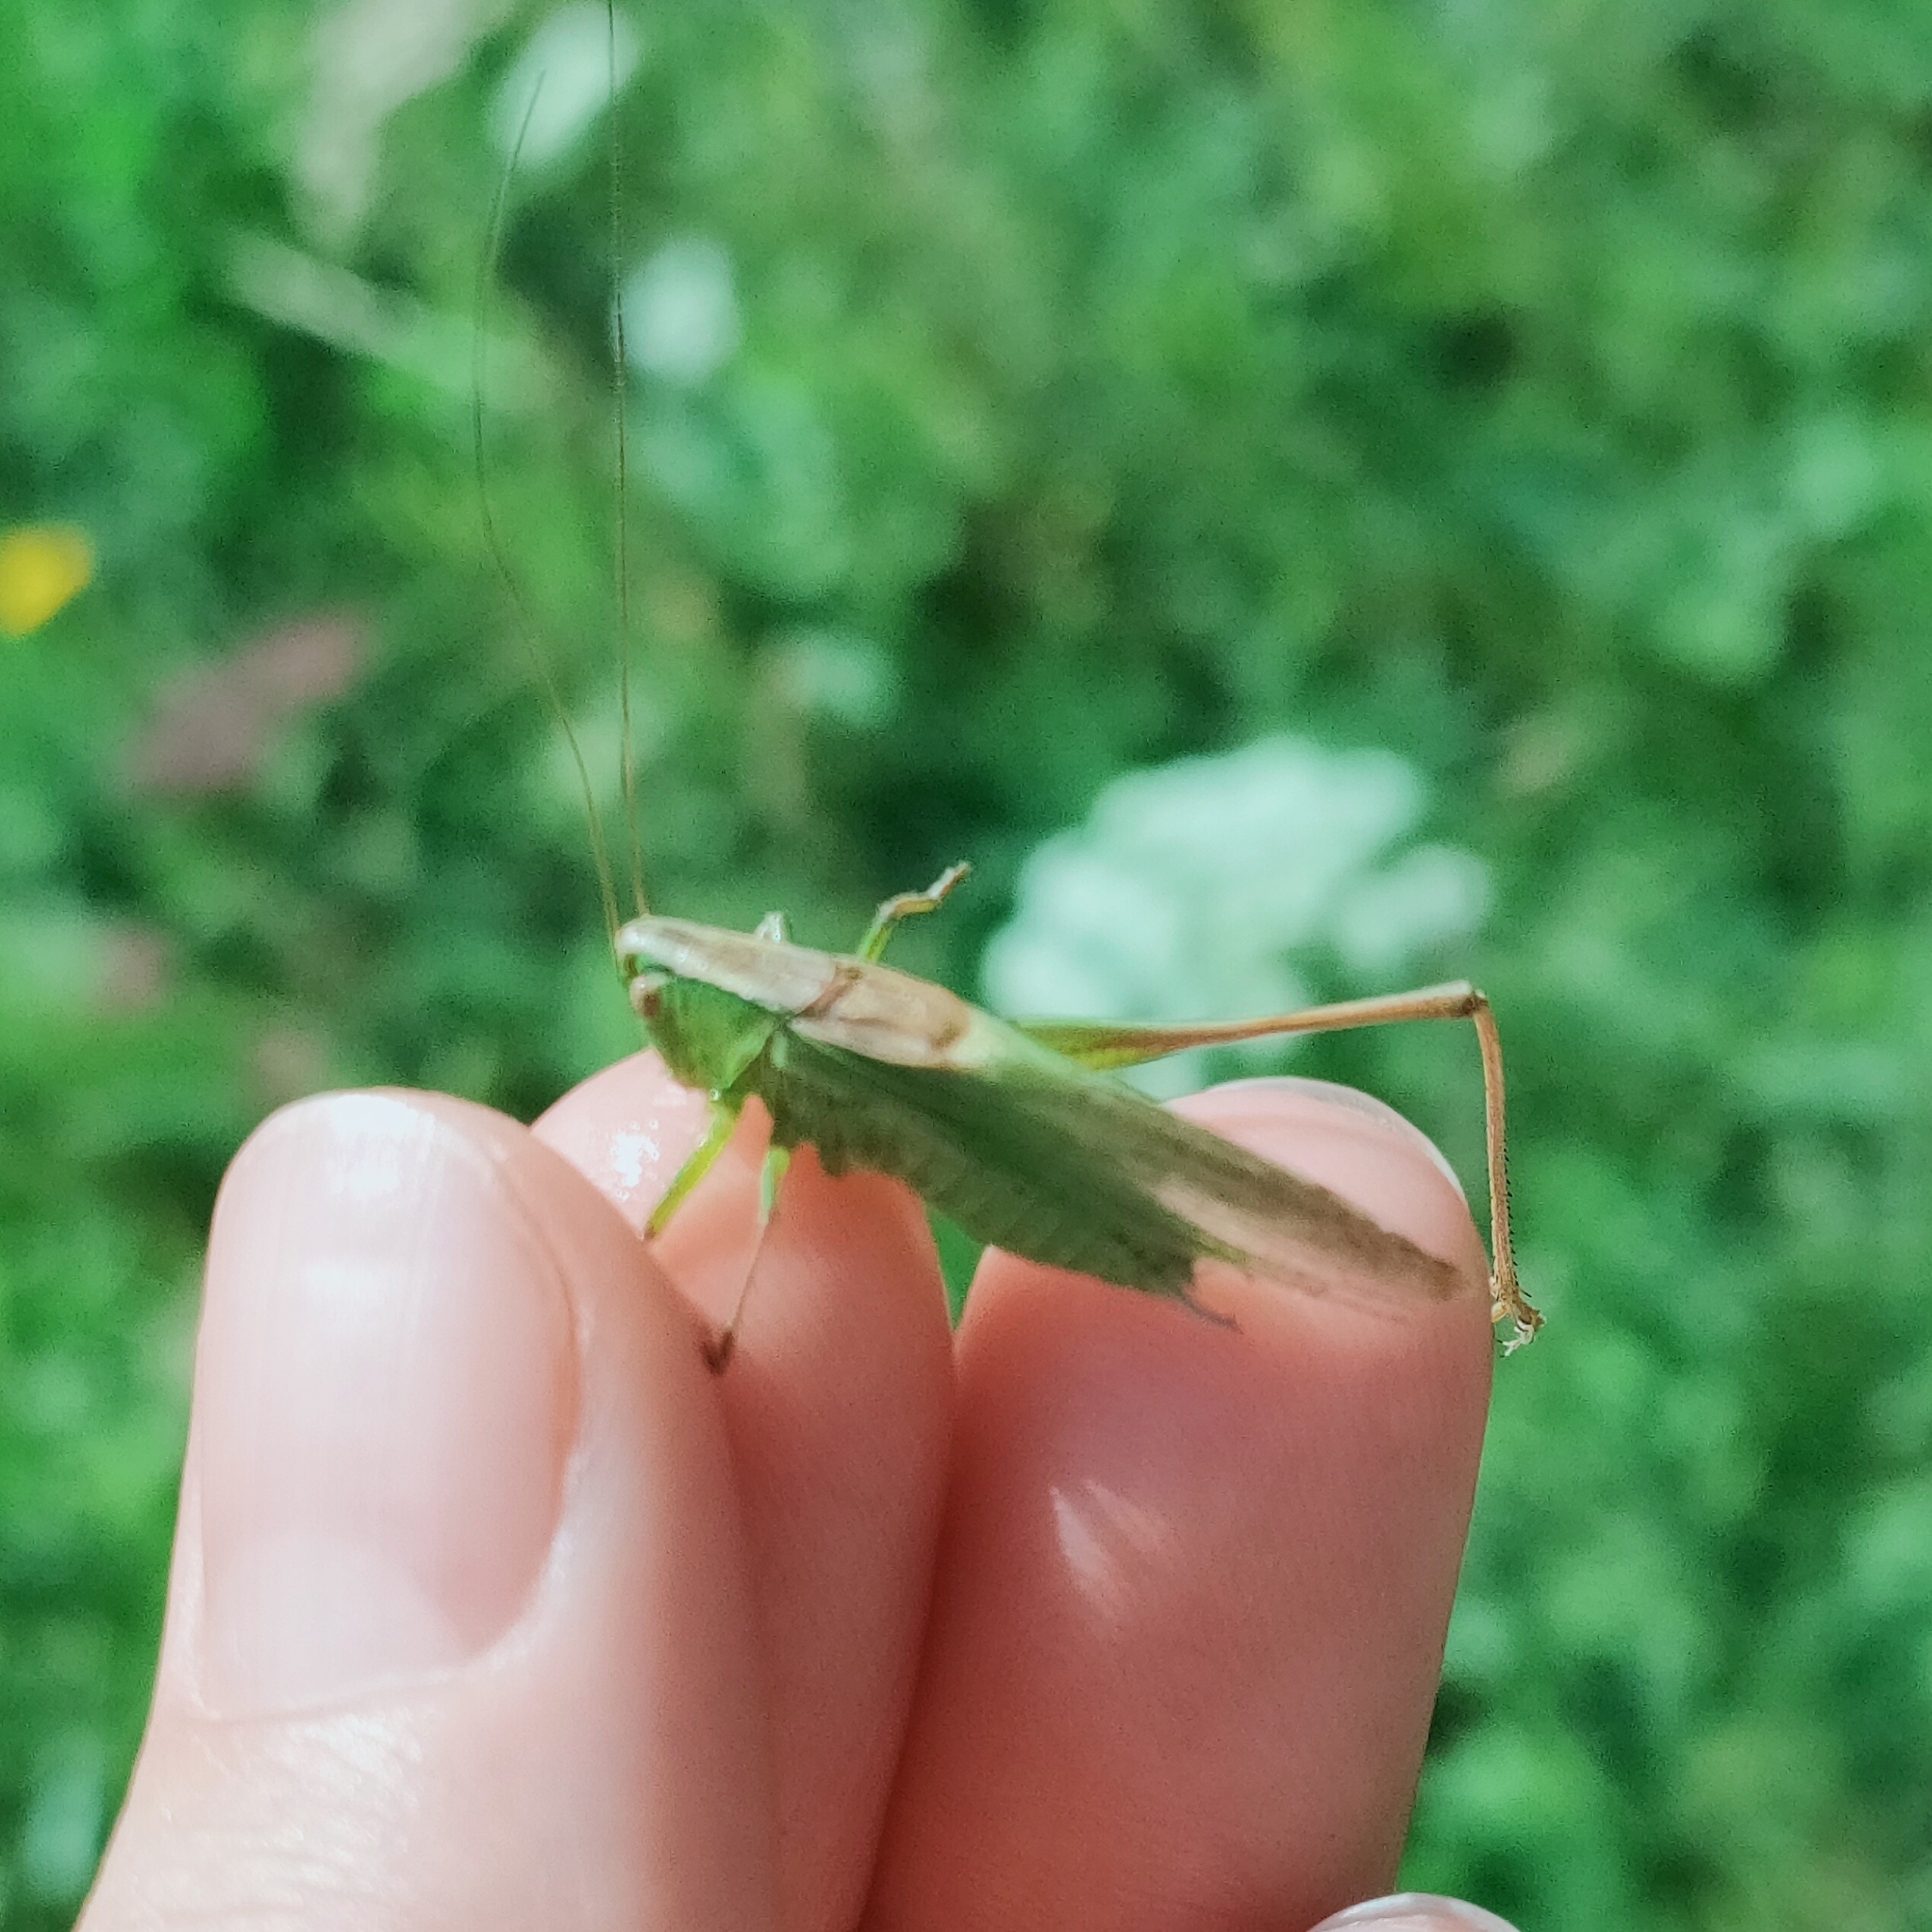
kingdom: Animalia
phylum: Arthropoda
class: Insecta
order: Orthoptera
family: Tettigoniidae
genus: Bicolorana
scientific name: Bicolorana bicolor
